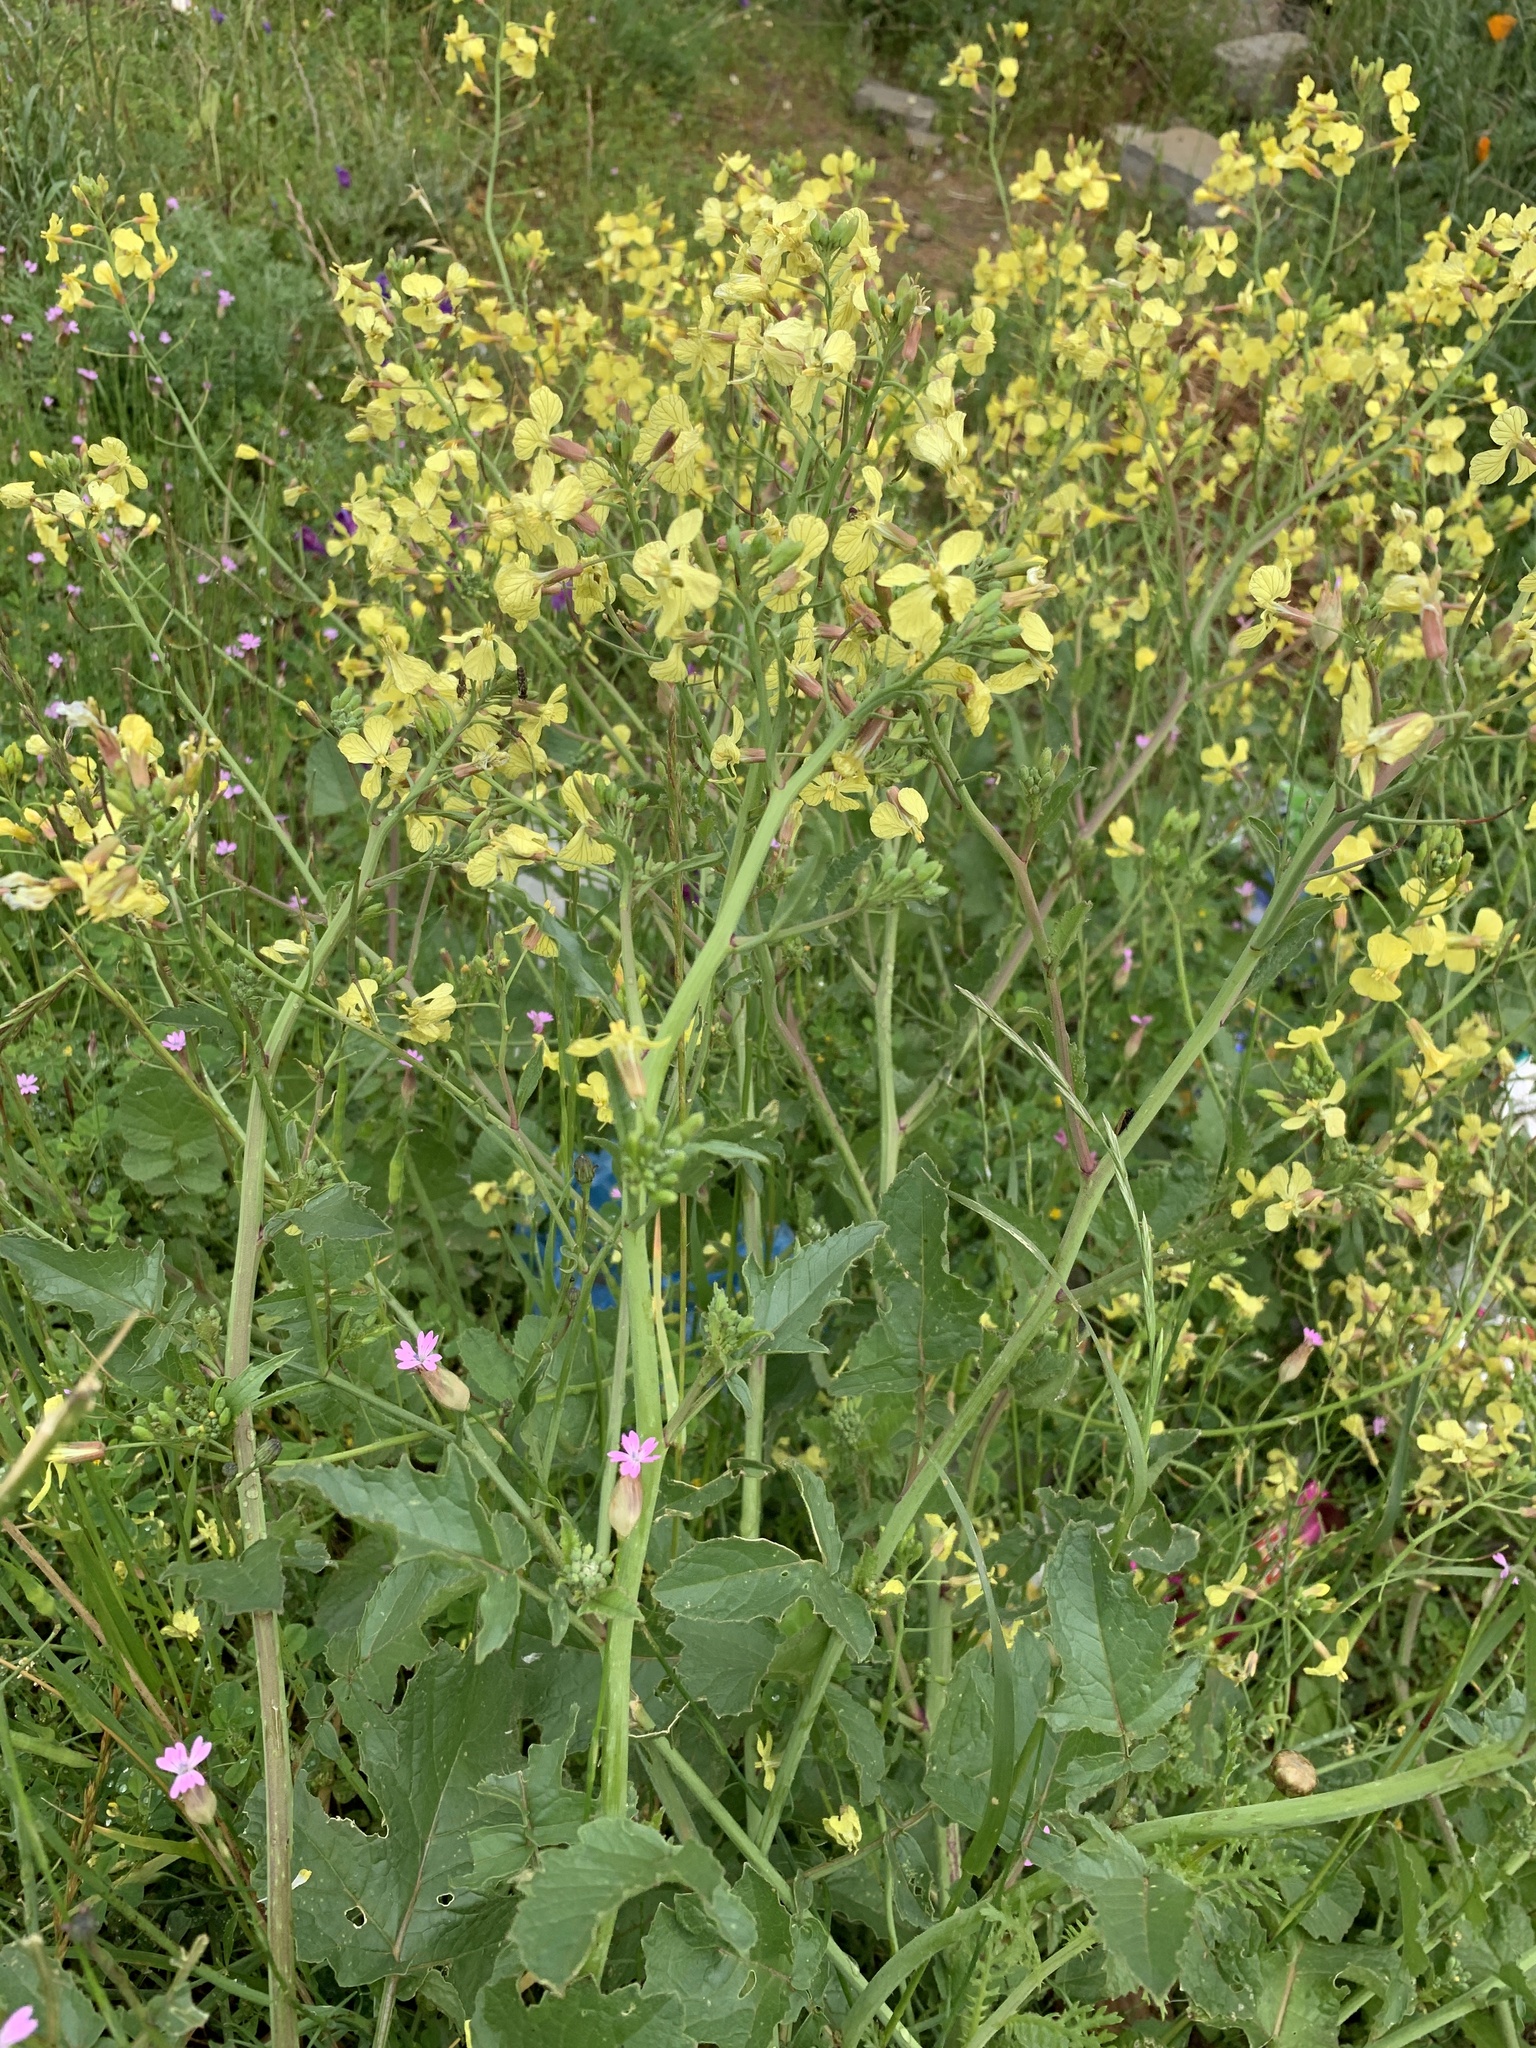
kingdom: Plantae
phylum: Tracheophyta
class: Magnoliopsida
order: Brassicales
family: Brassicaceae
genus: Raphanus
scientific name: Raphanus raphanistrum
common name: Wild radish
